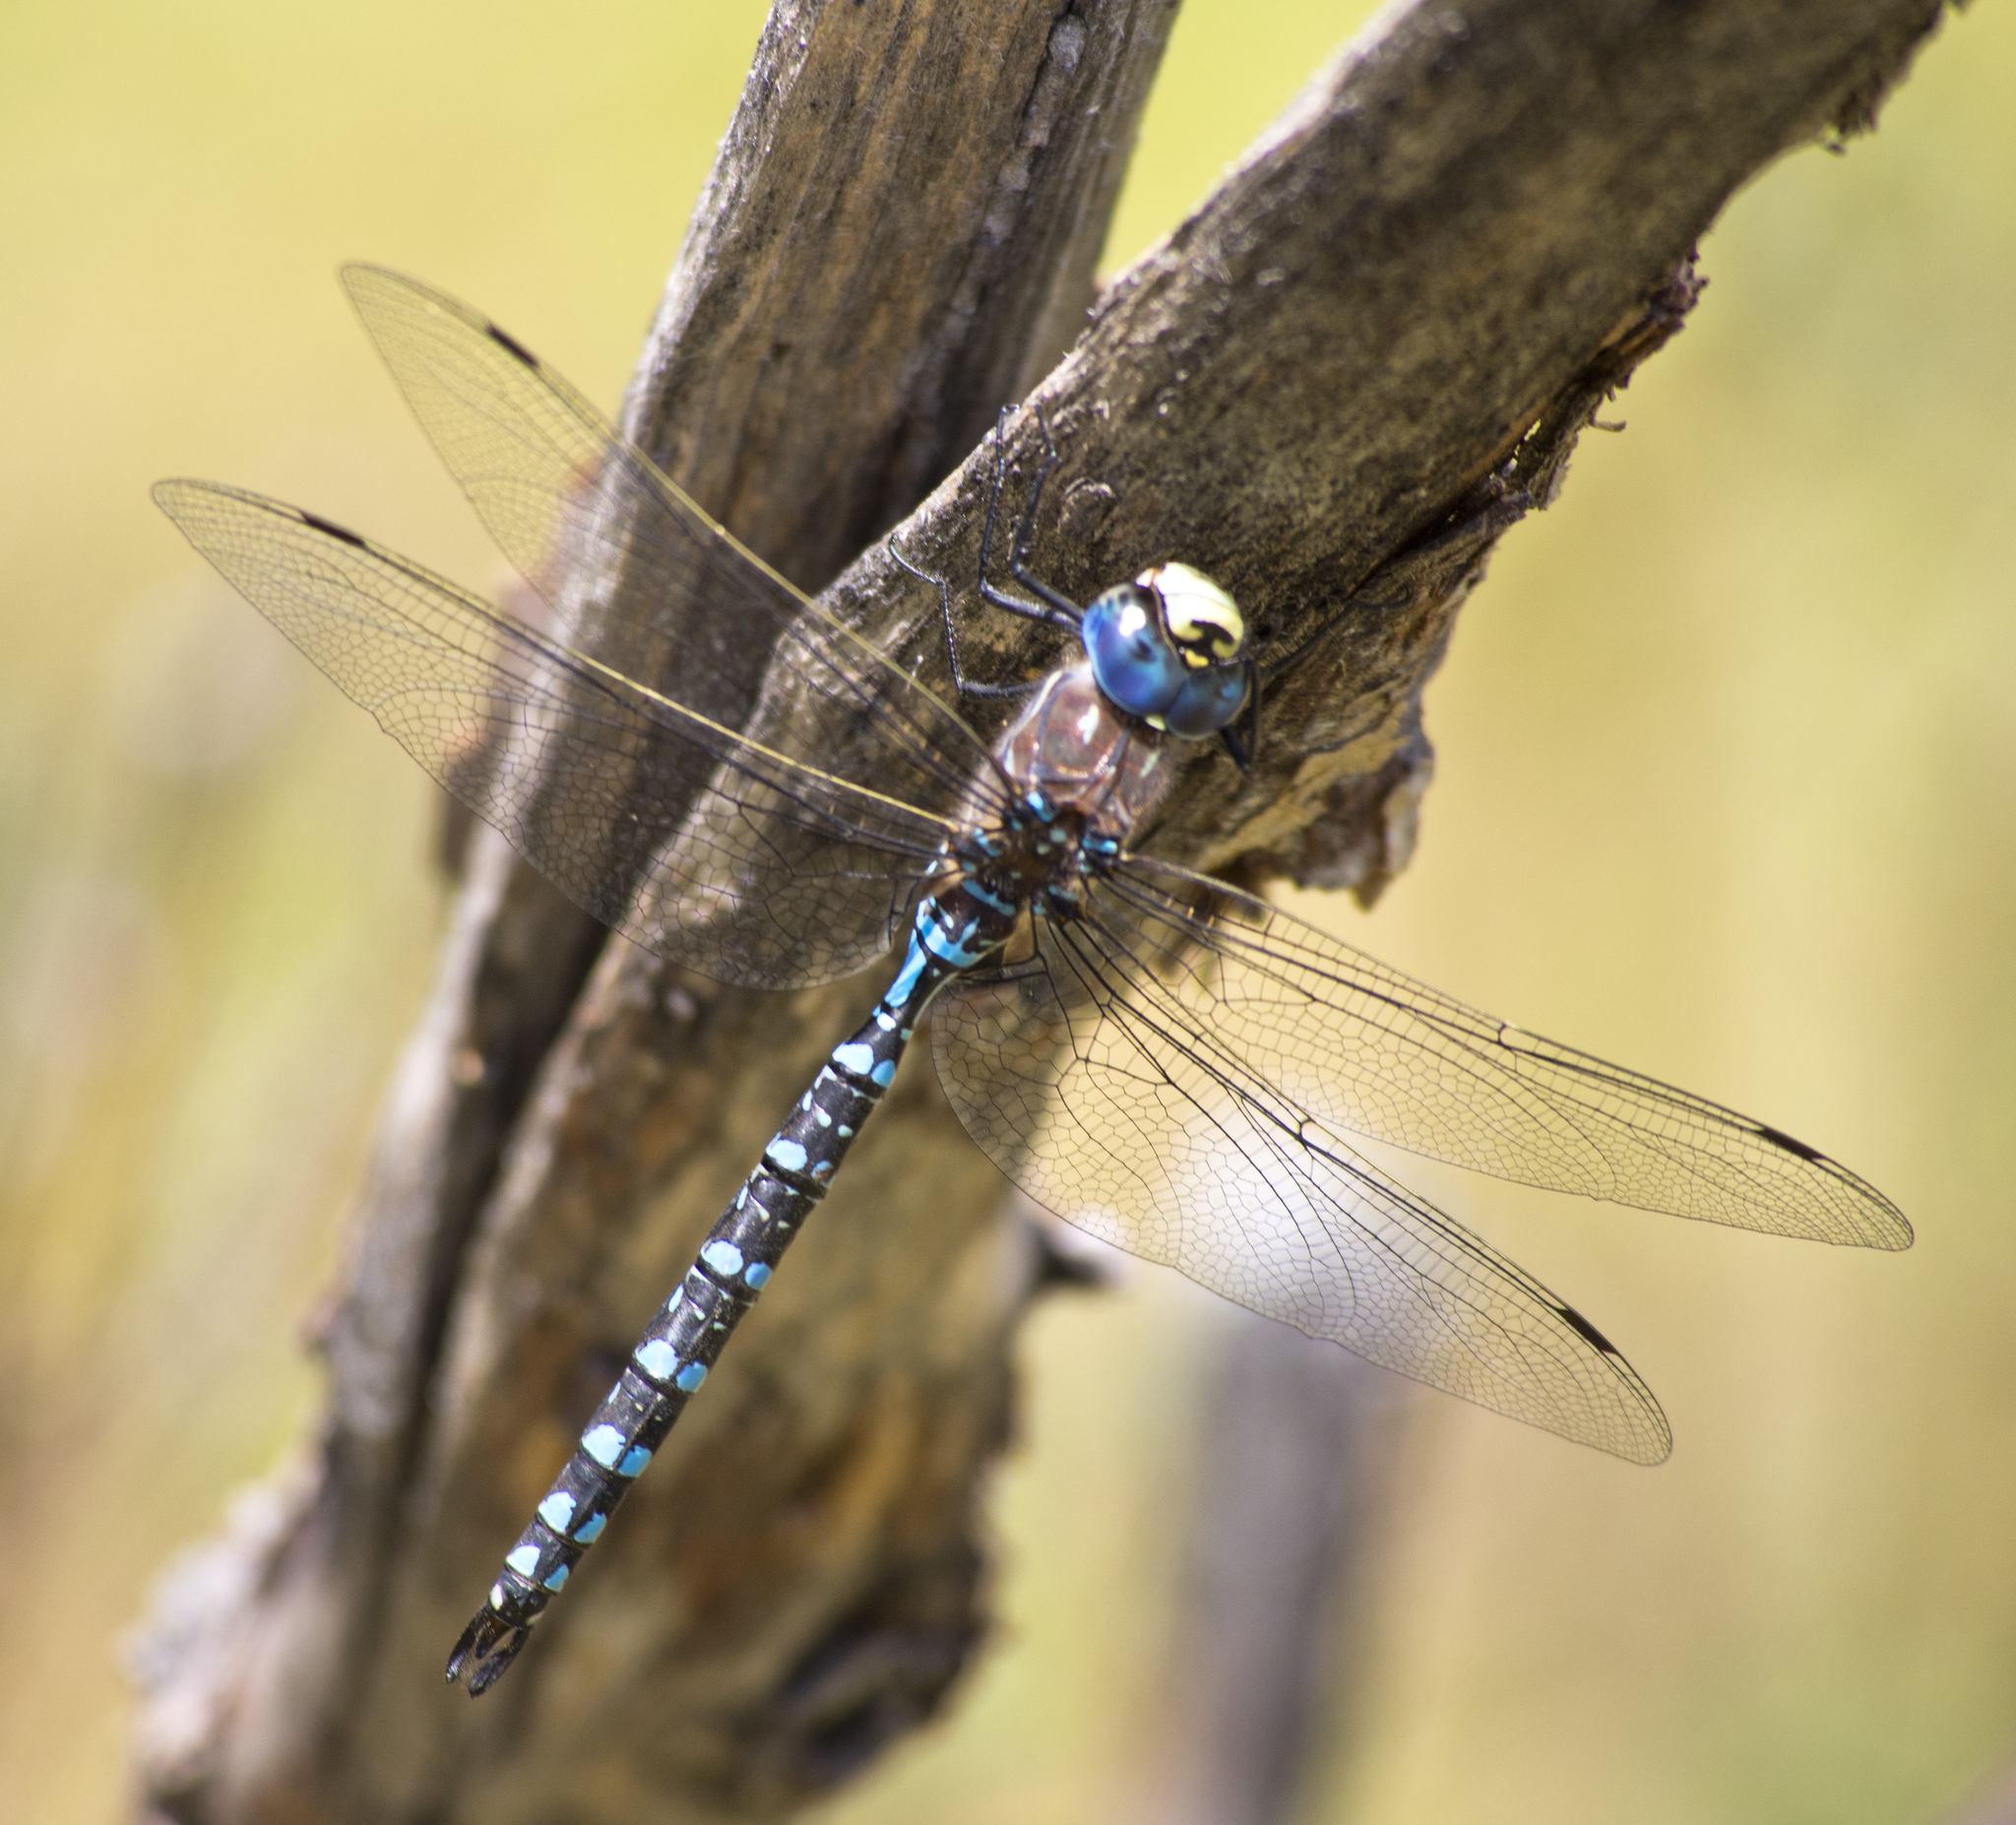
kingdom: Animalia
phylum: Arthropoda
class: Insecta
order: Odonata
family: Aeshnidae
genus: Aeshna
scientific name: Aeshna interrupta
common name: Variable darner
